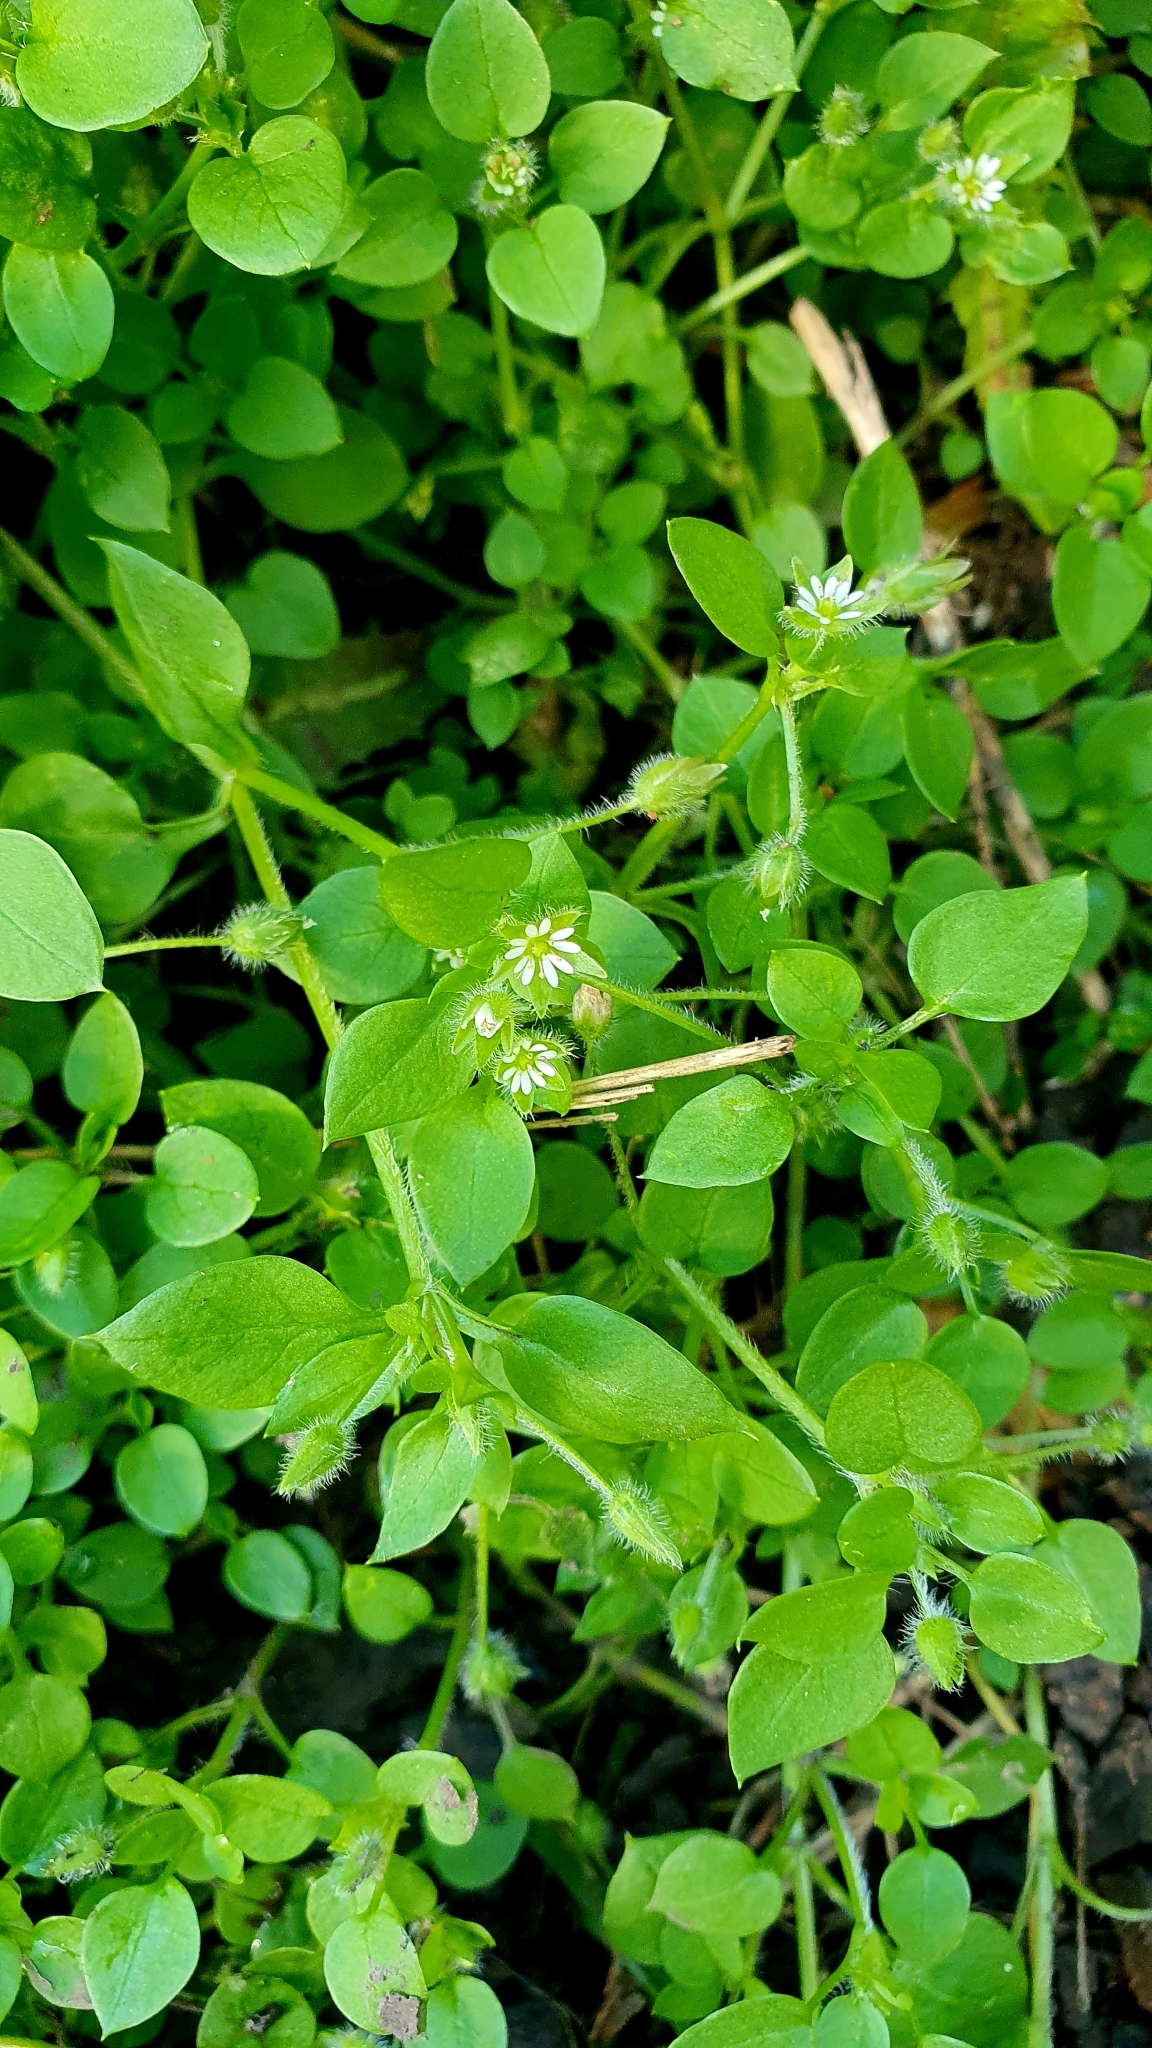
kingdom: Plantae
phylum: Tracheophyta
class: Magnoliopsida
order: Caryophyllales
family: Caryophyllaceae
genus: Stellaria
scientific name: Stellaria media
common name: Common chickweed
